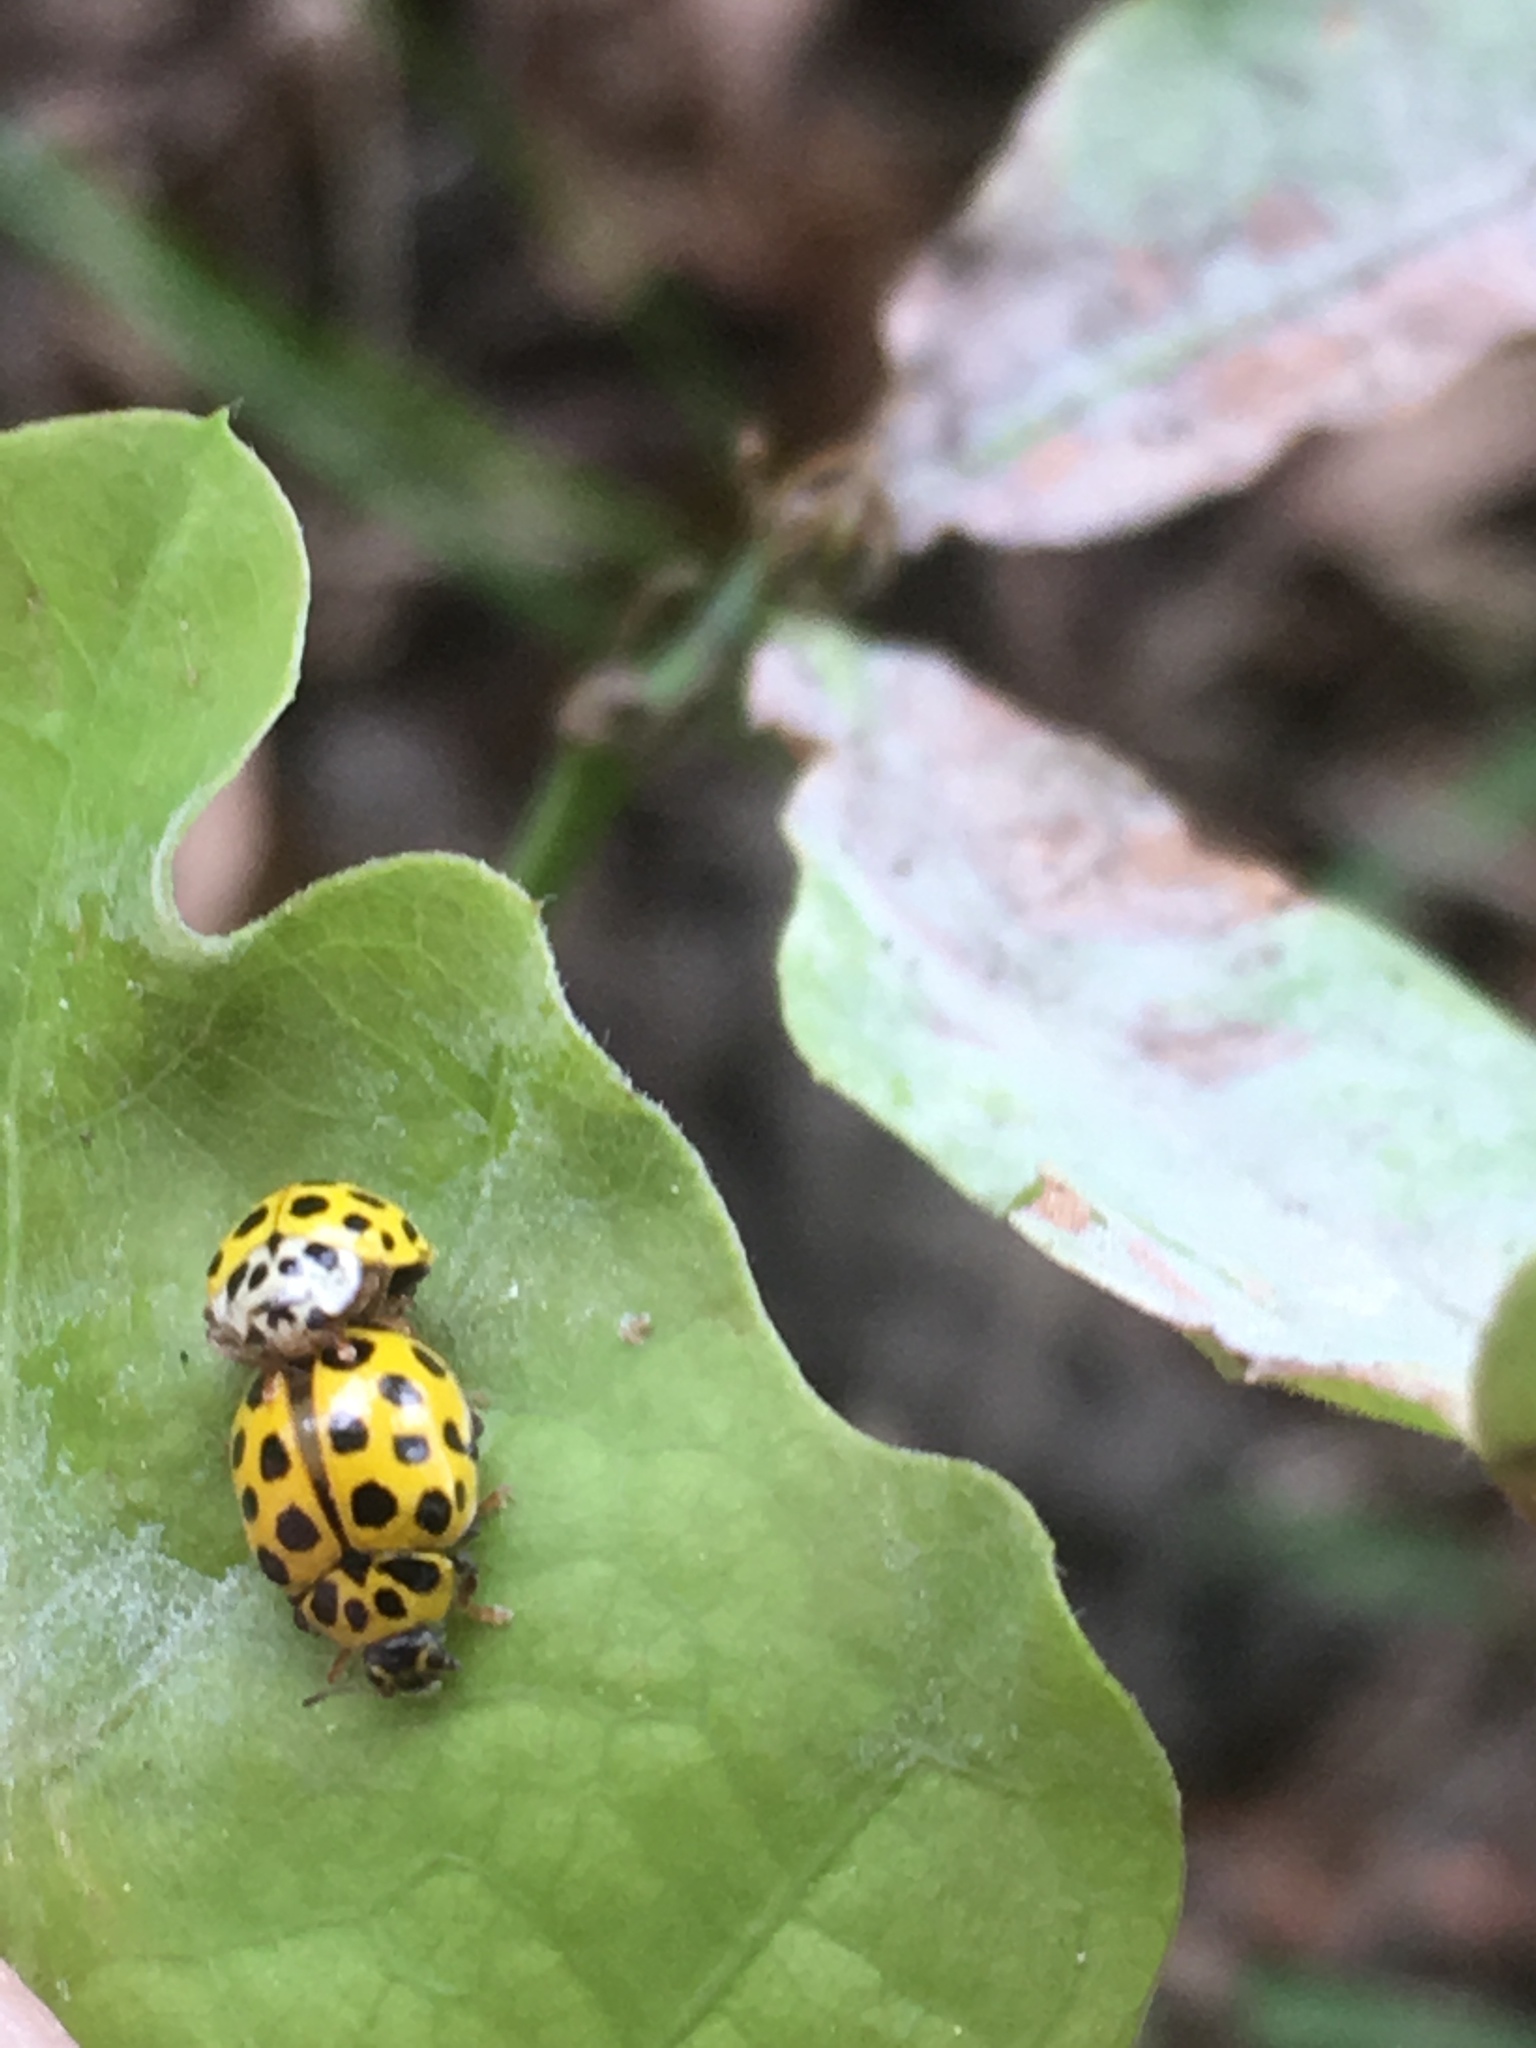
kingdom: Animalia
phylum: Arthropoda
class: Insecta
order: Coleoptera
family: Coccinellidae
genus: Psyllobora
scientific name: Psyllobora vigintiduopunctata
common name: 22-spot ladybird
